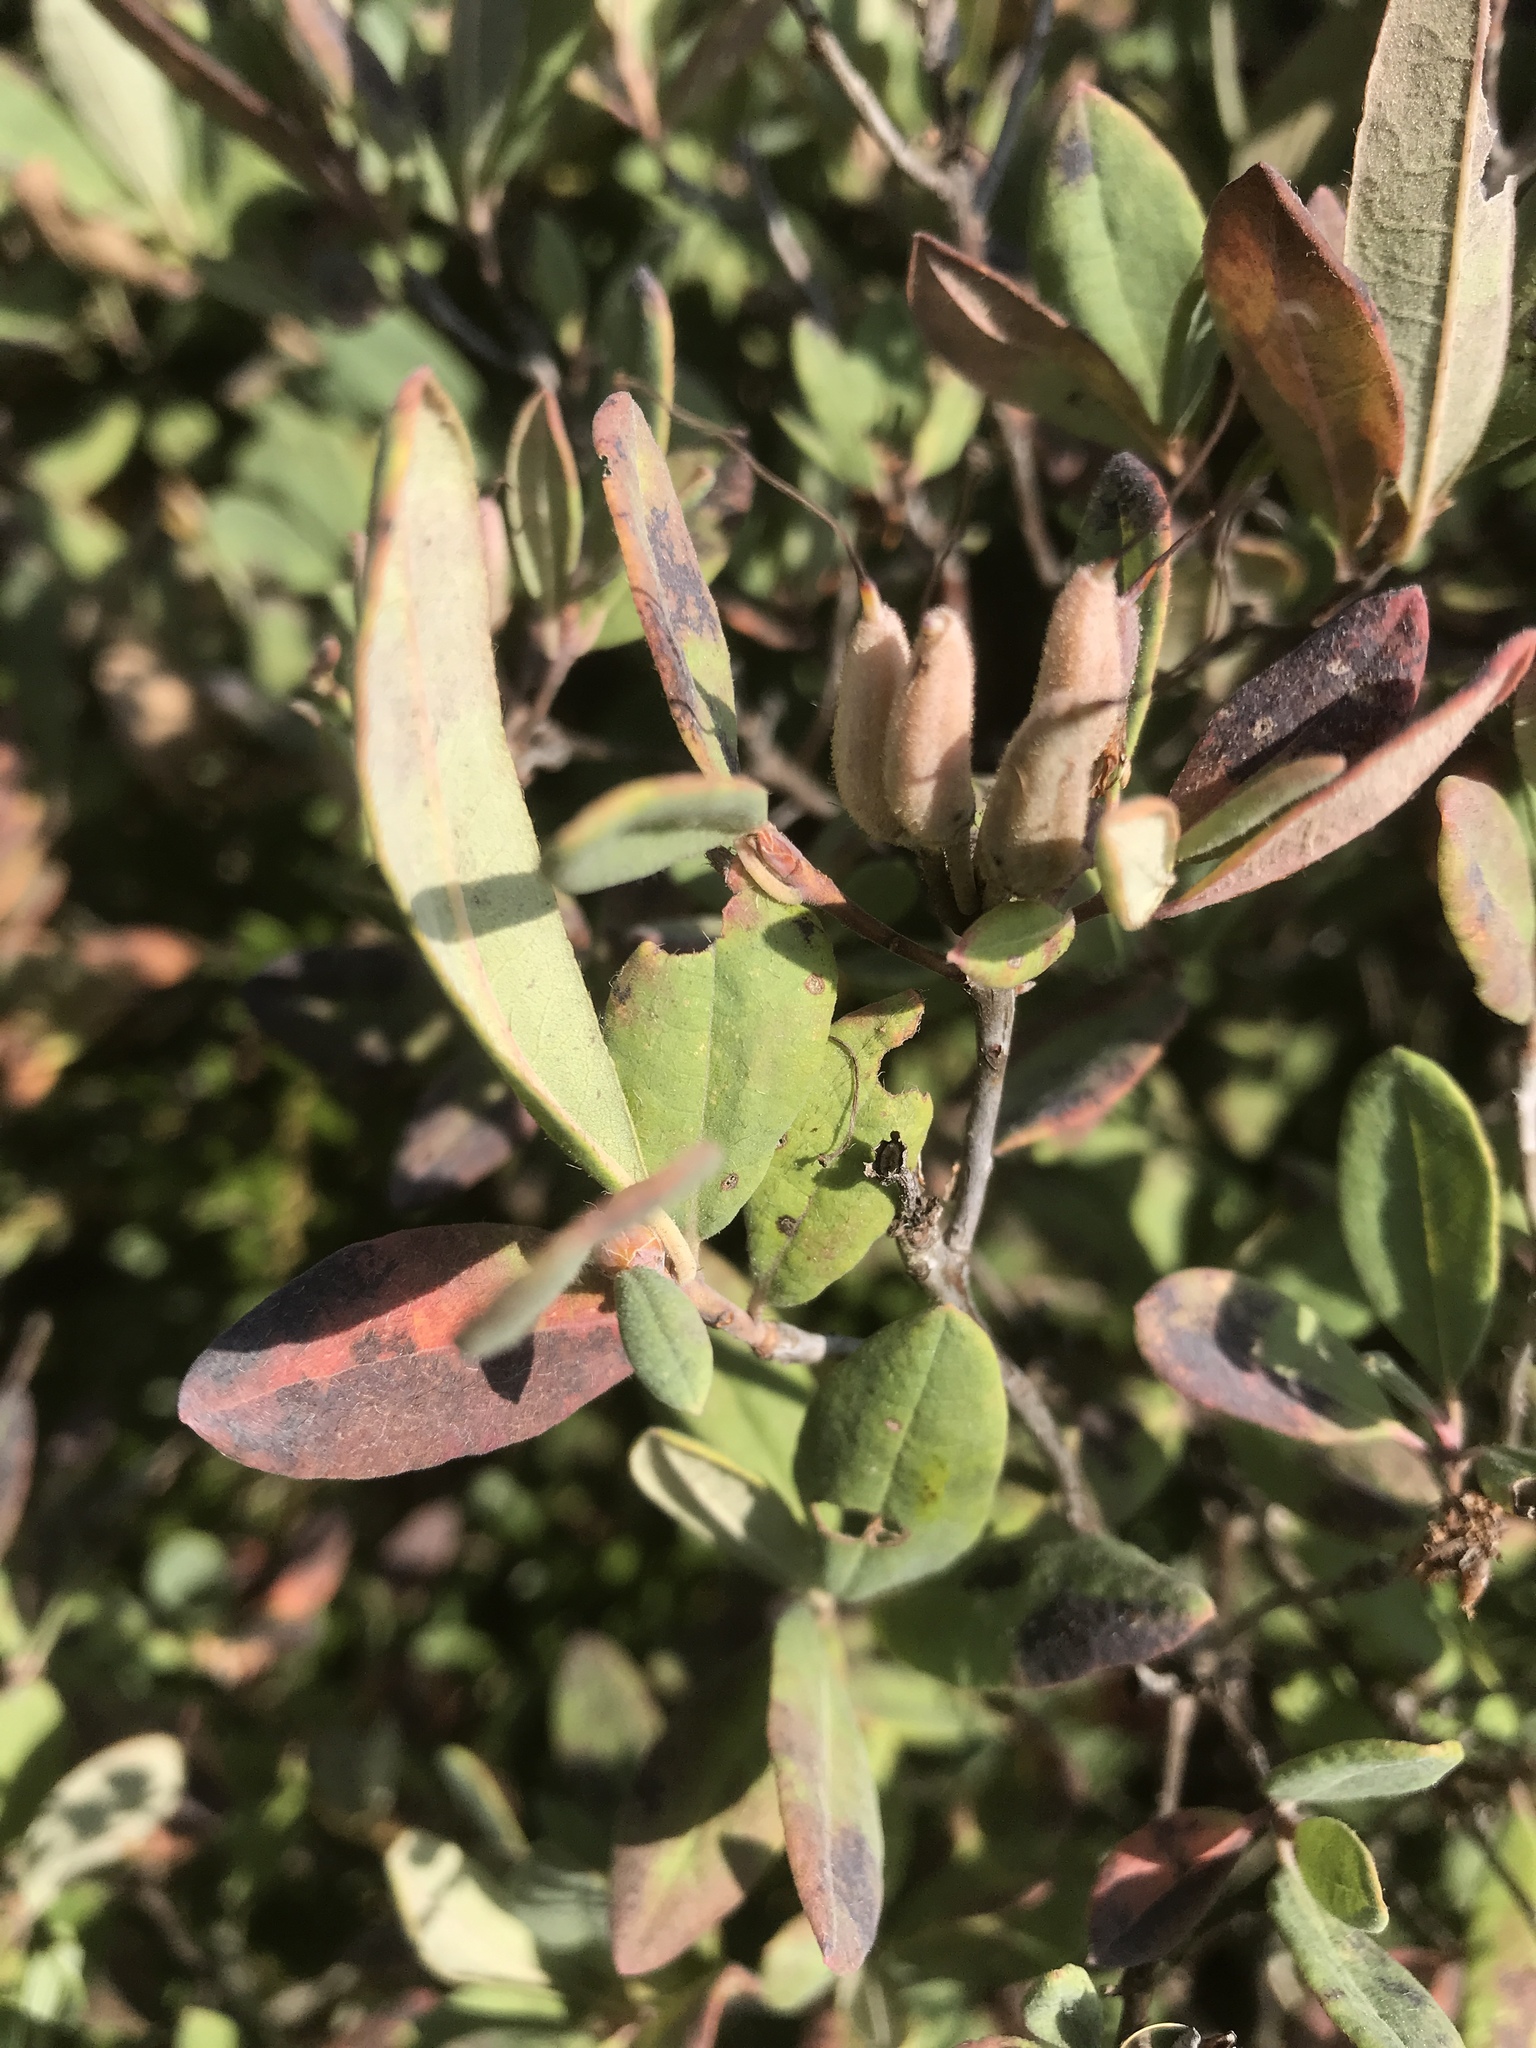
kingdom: Plantae
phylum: Tracheophyta
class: Magnoliopsida
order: Ericales
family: Ericaceae
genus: Rhododendron
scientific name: Rhododendron canadense
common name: Rhodora
